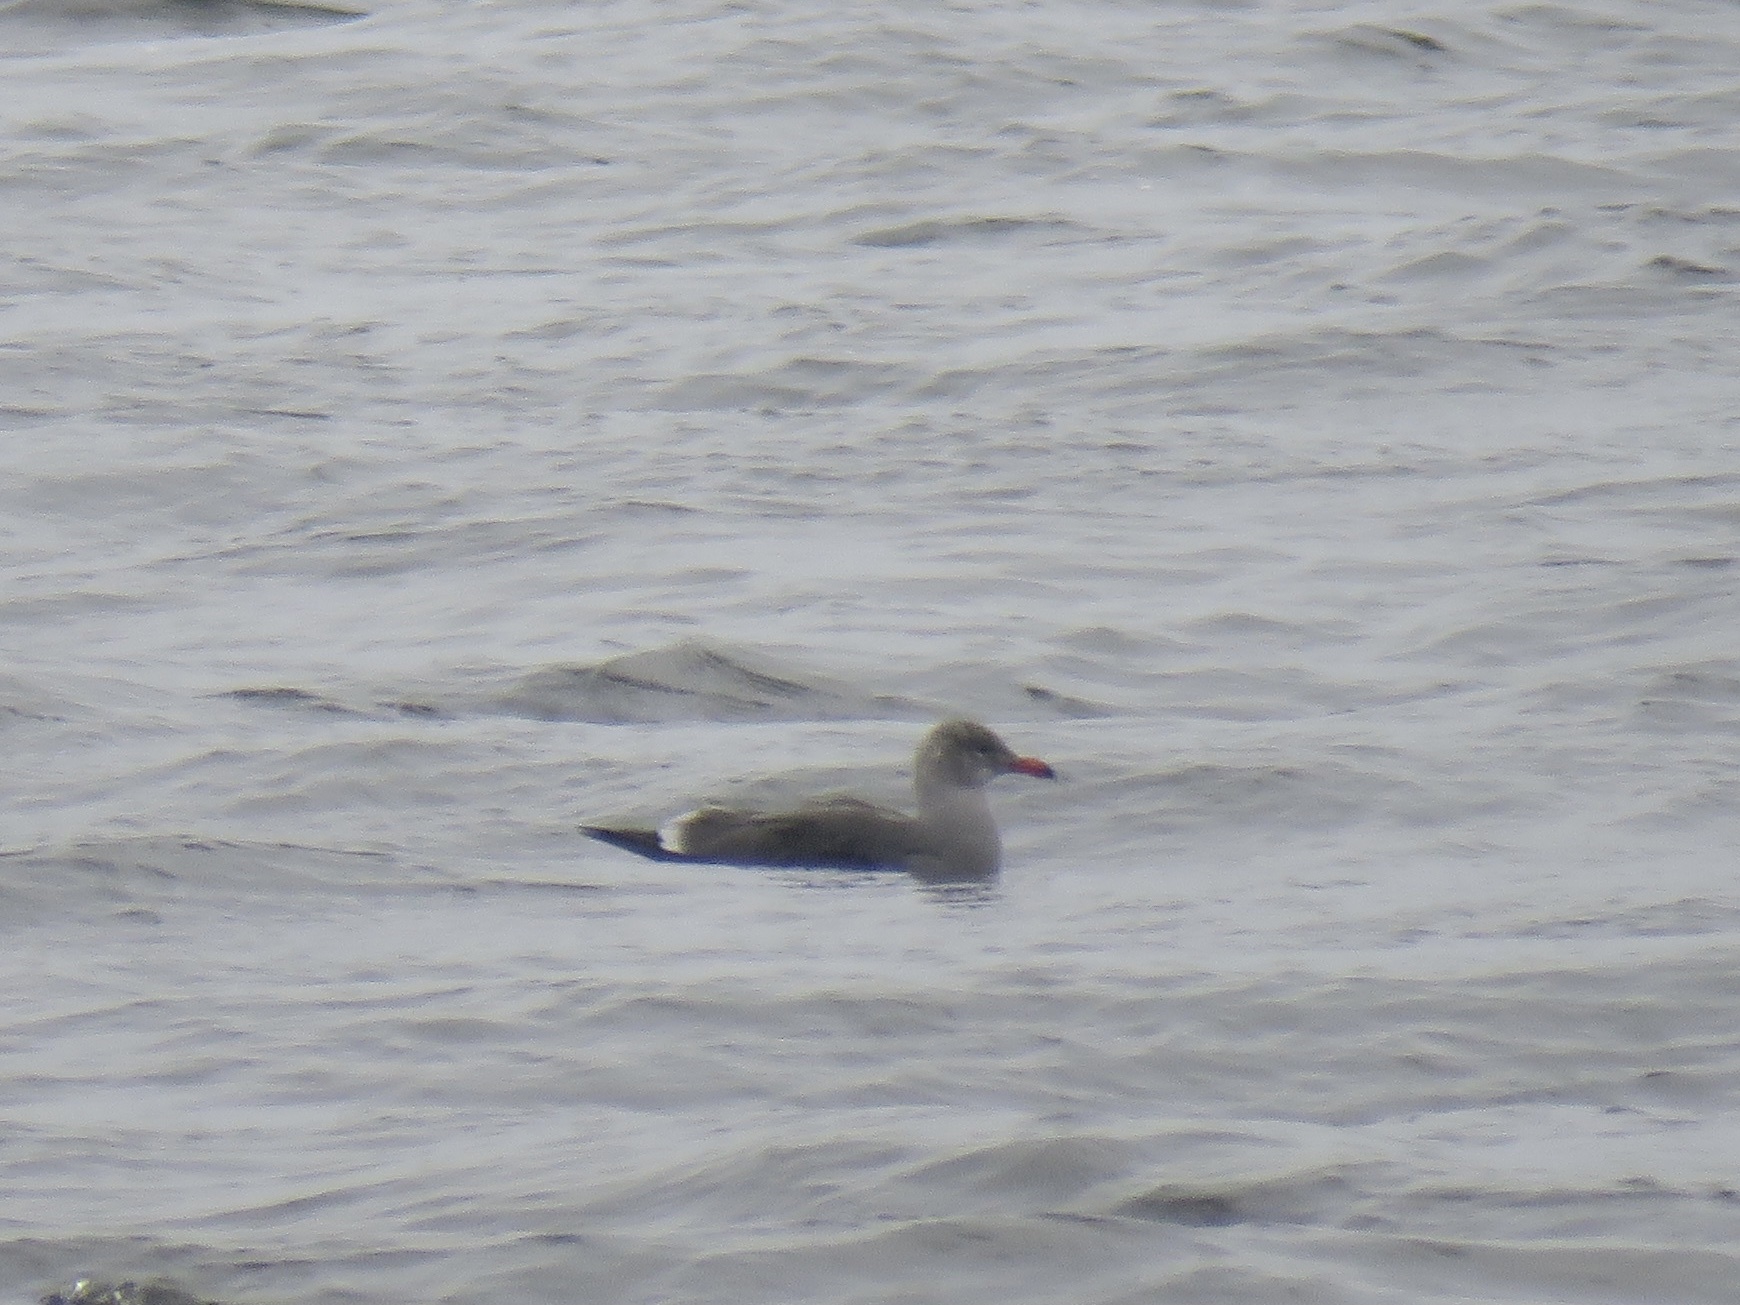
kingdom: Animalia
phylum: Chordata
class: Aves
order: Charadriiformes
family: Laridae
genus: Larus
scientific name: Larus heermanni
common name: Heermann's gull
